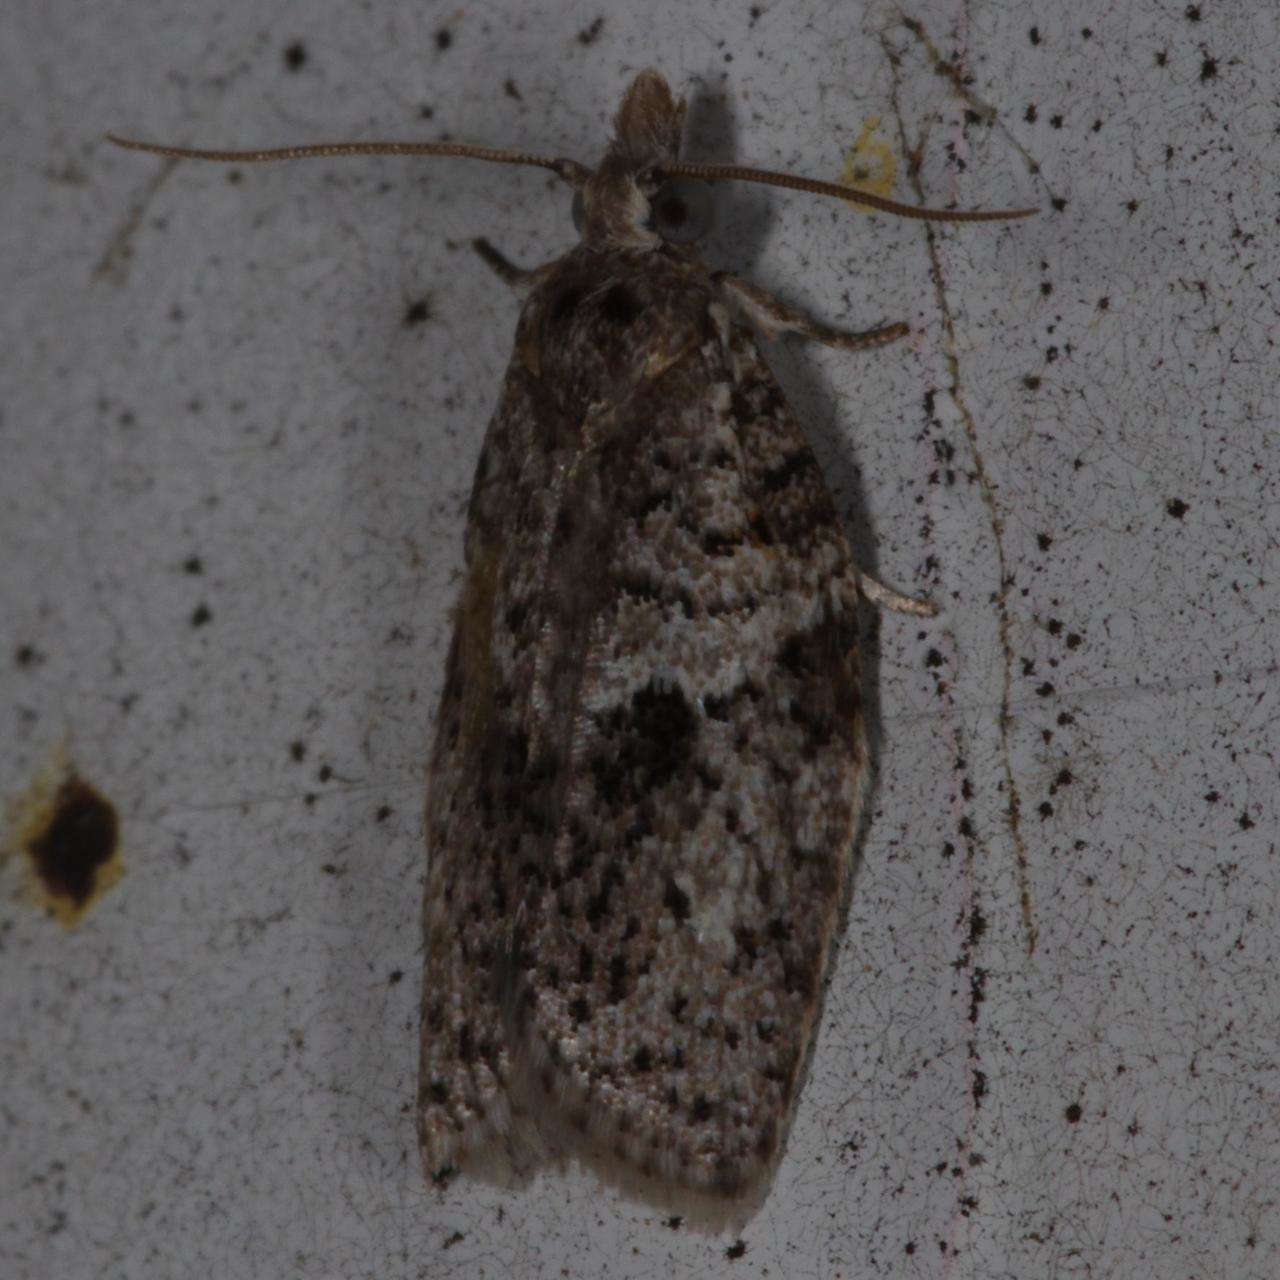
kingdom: Animalia
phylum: Arthropoda
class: Insecta
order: Lepidoptera
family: Tortricidae
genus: Isotenes
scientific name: Isotenes miserana
